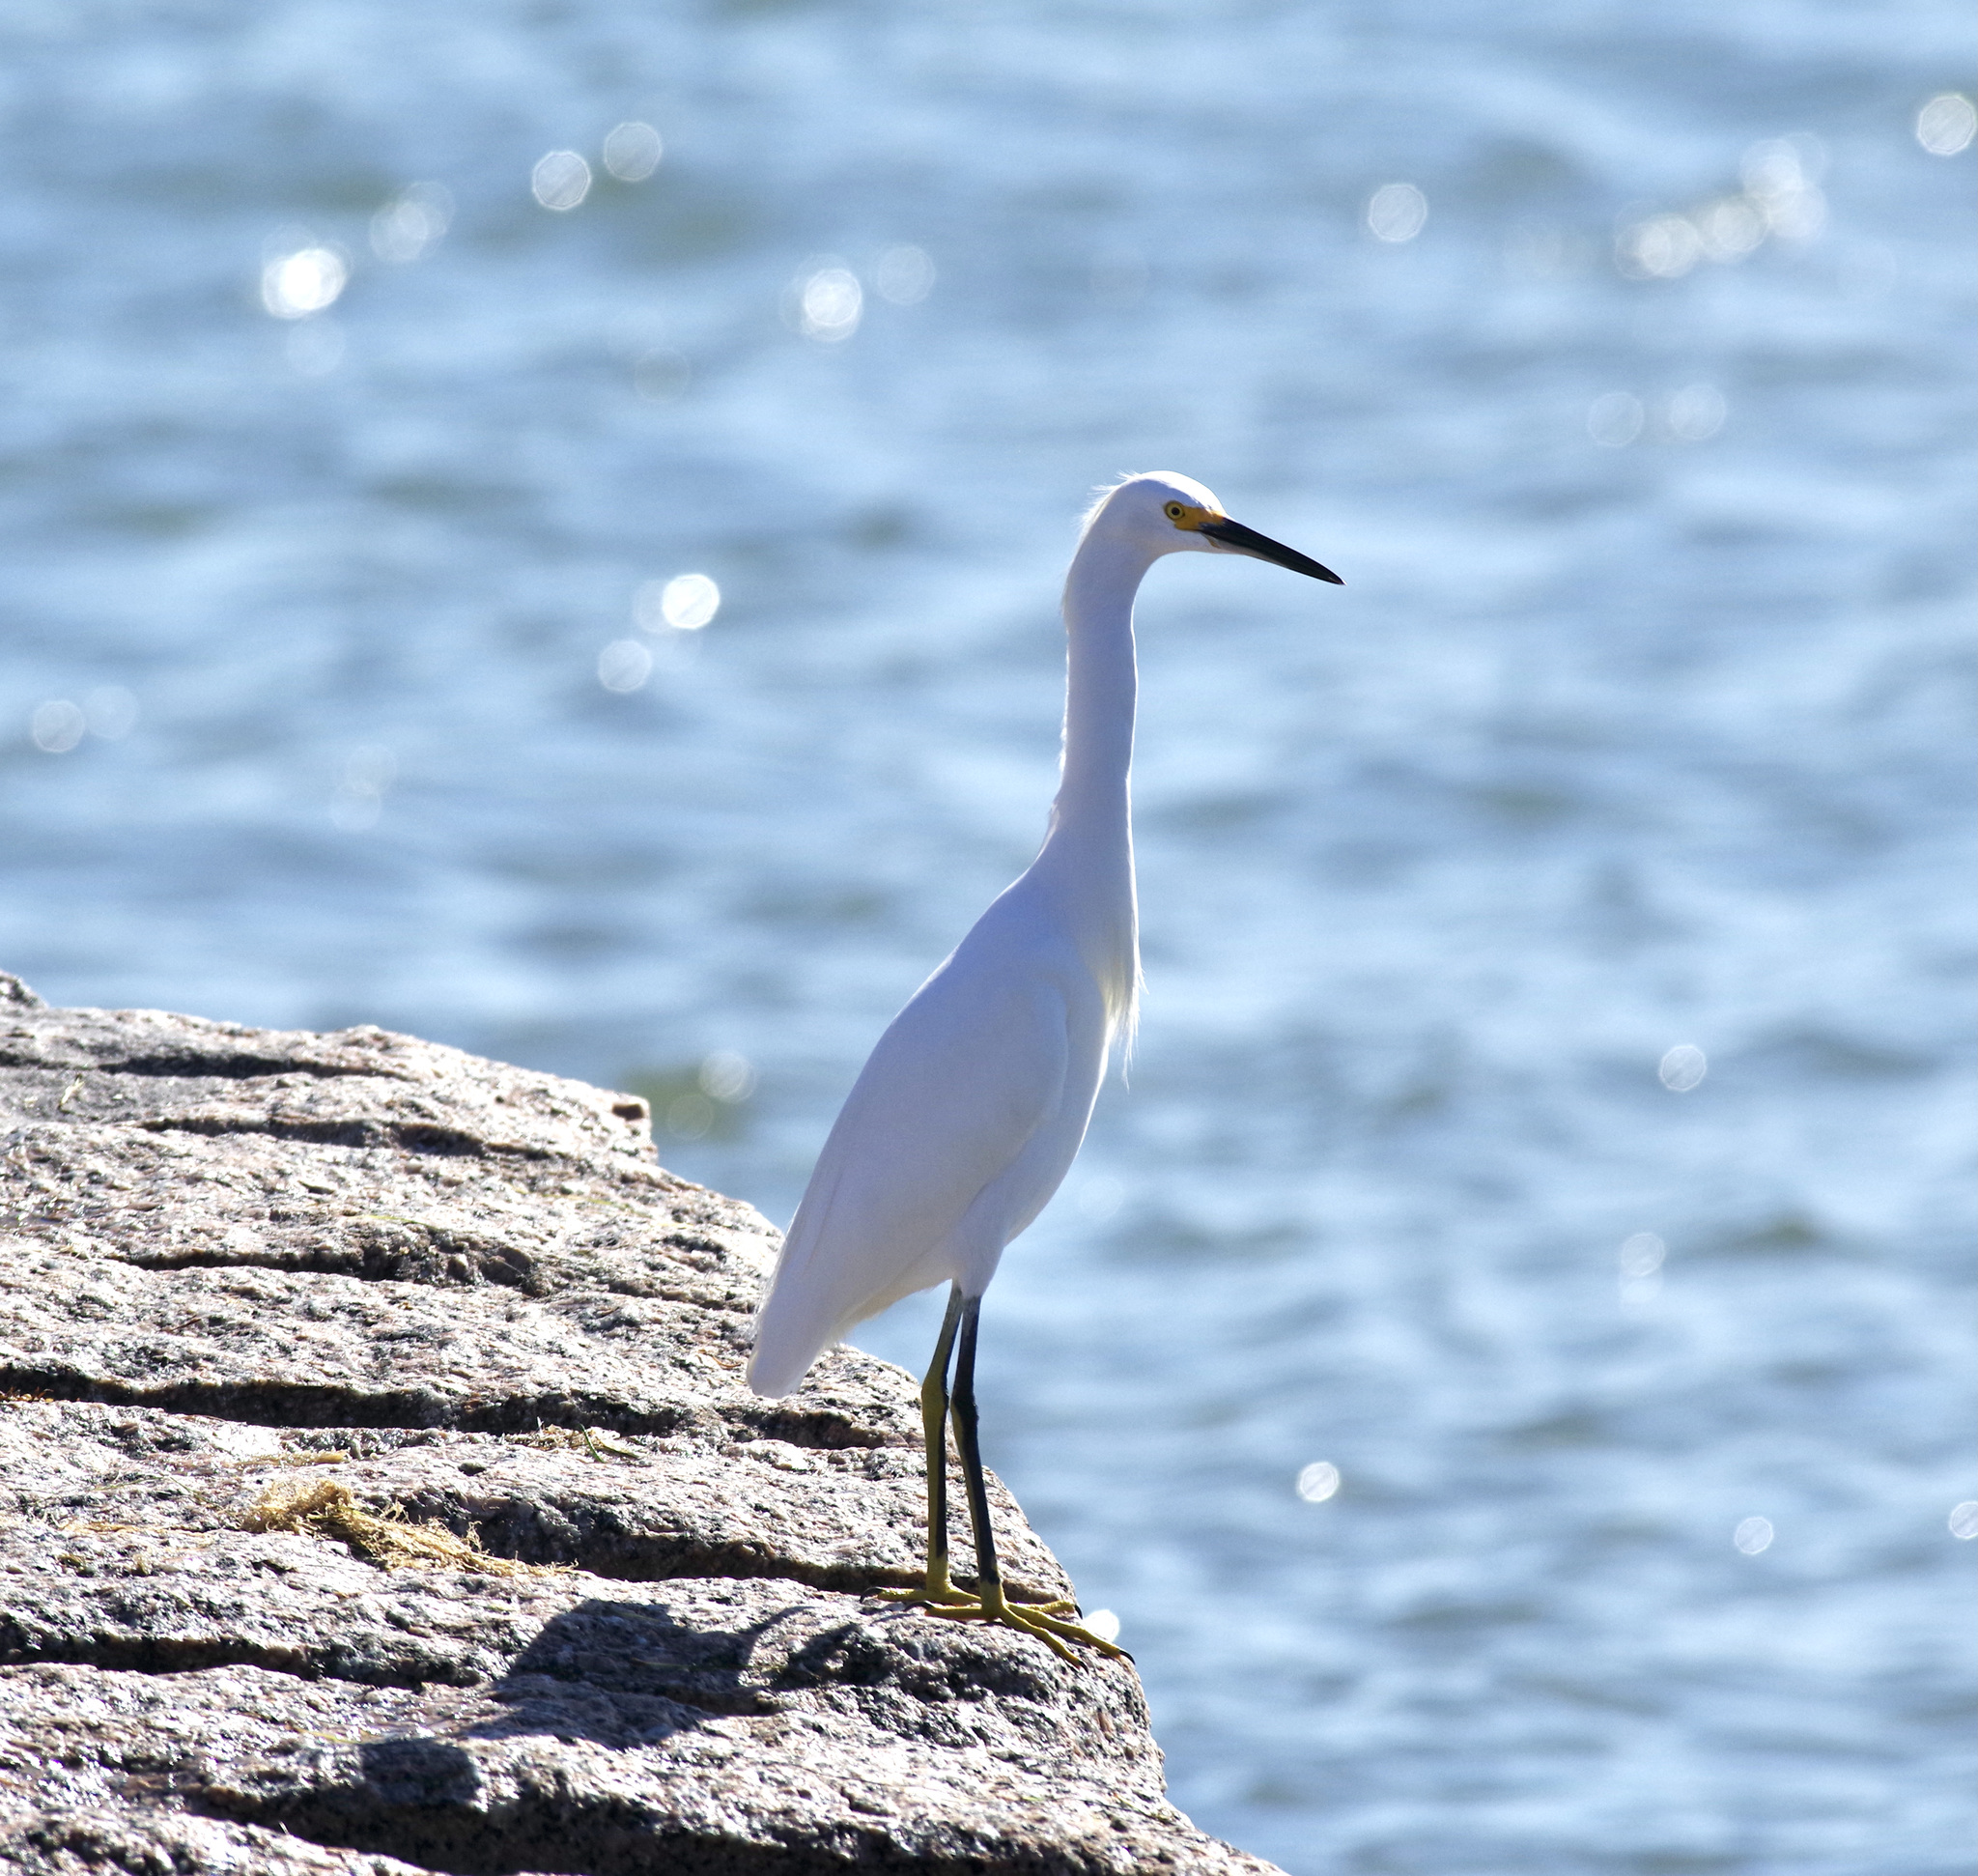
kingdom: Animalia
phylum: Chordata
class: Aves
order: Pelecaniformes
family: Ardeidae
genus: Egretta
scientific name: Egretta thula
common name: Snowy egret
